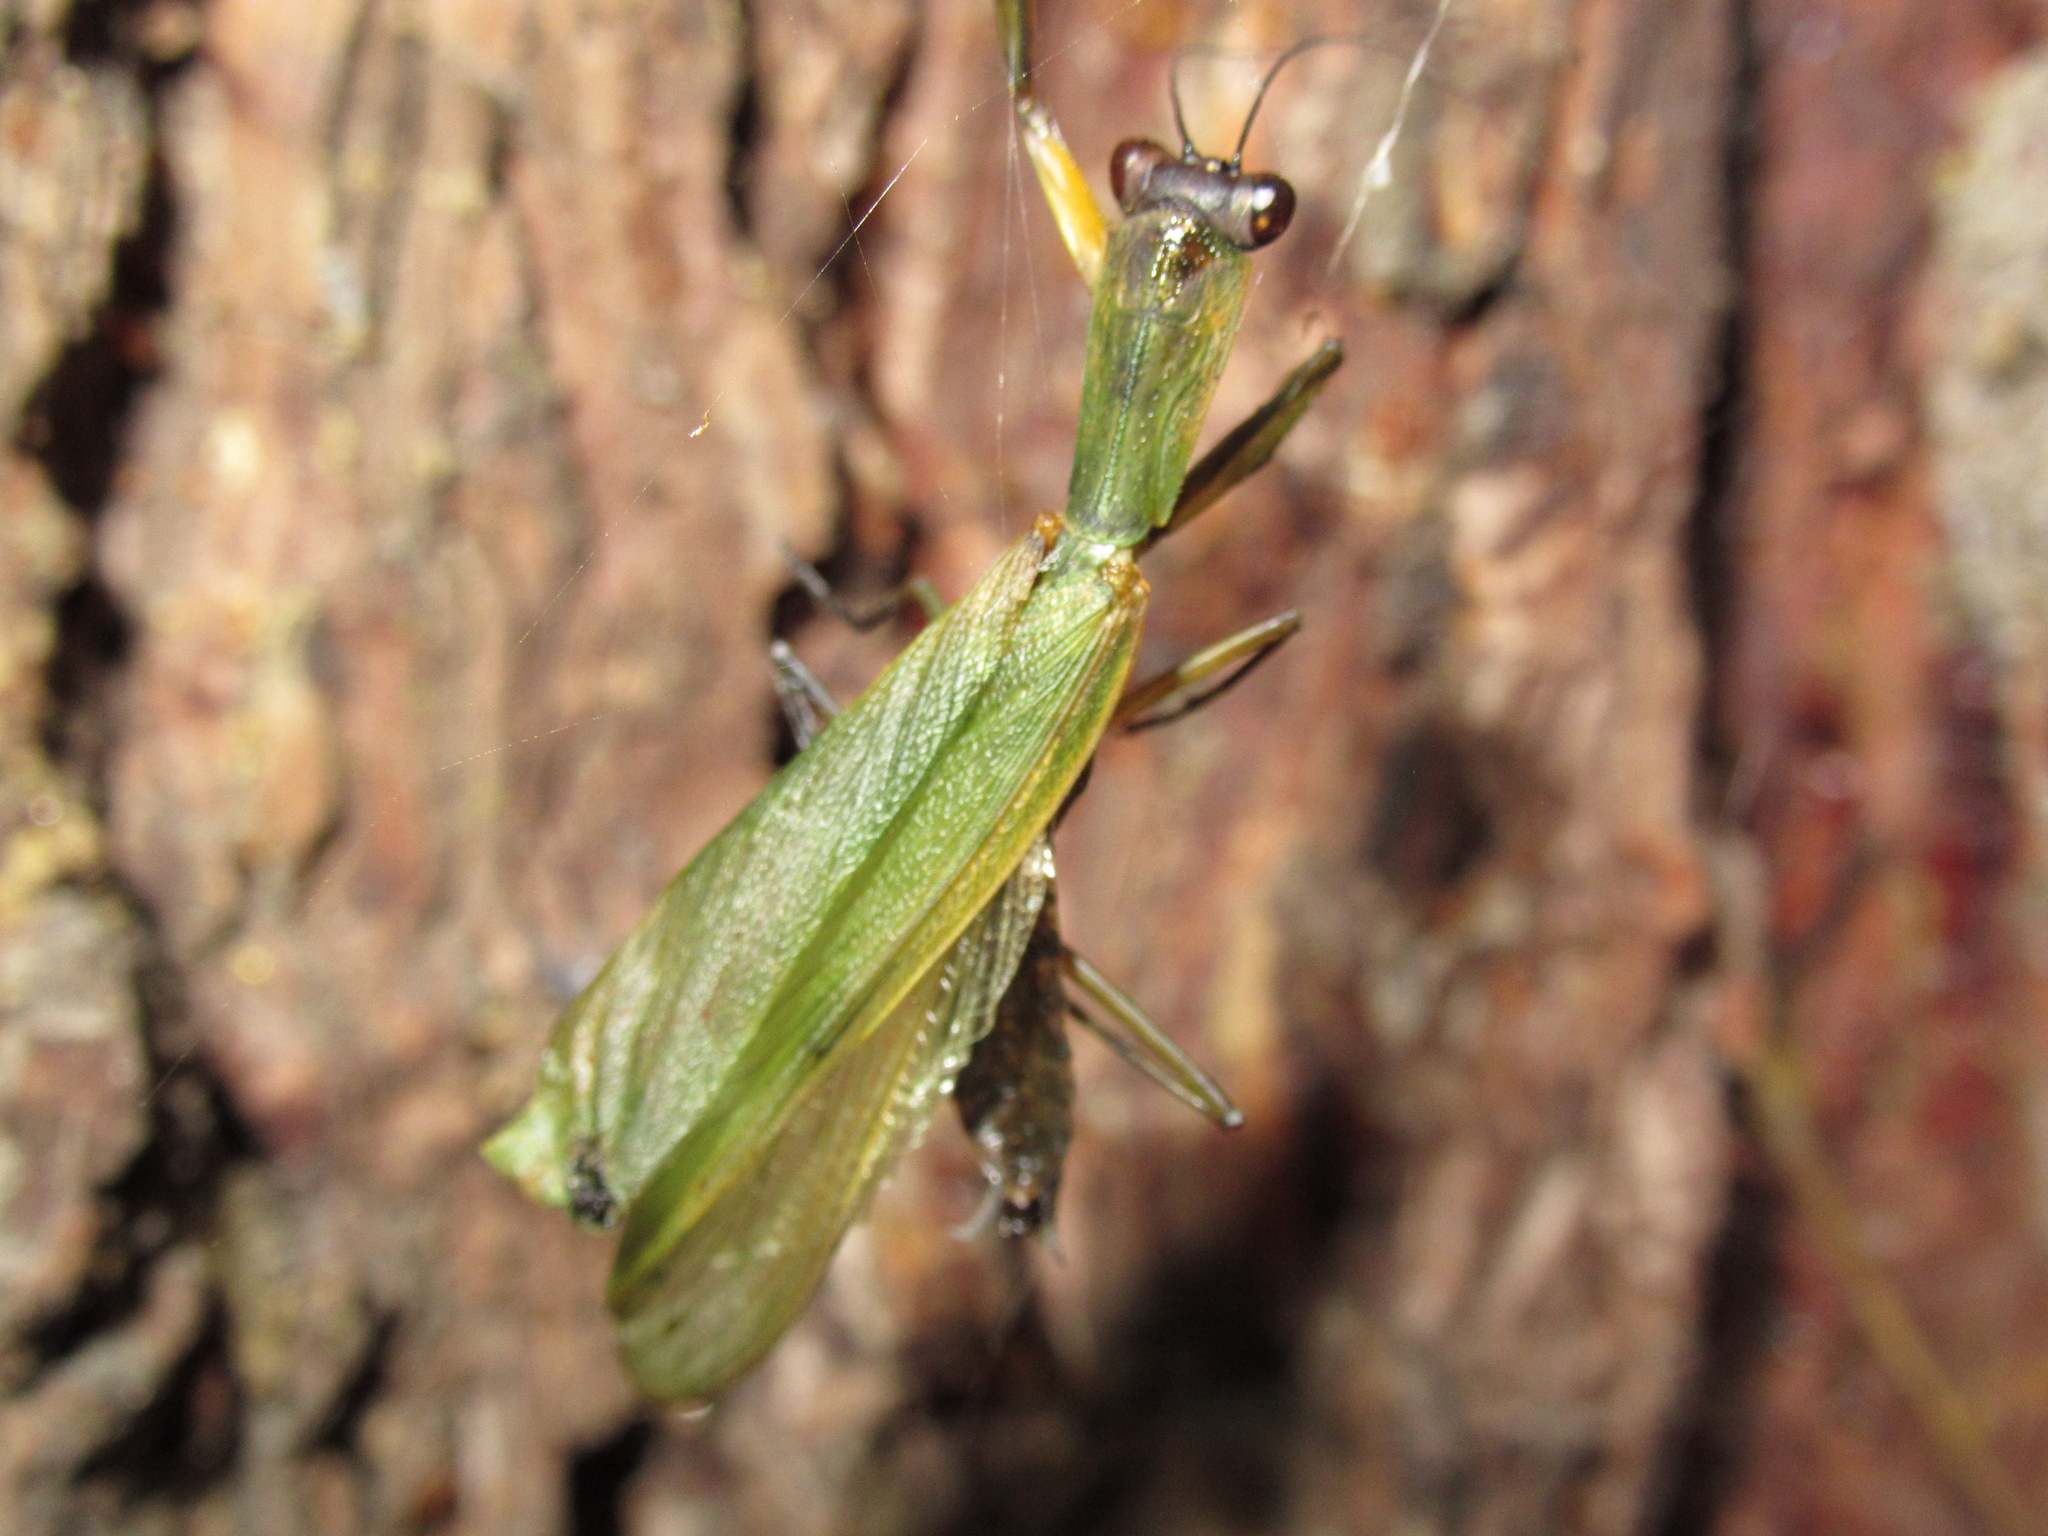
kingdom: Animalia
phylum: Arthropoda
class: Insecta
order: Mantodea
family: Mantidae
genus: Orthodera
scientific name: Orthodera novaezealandiae
